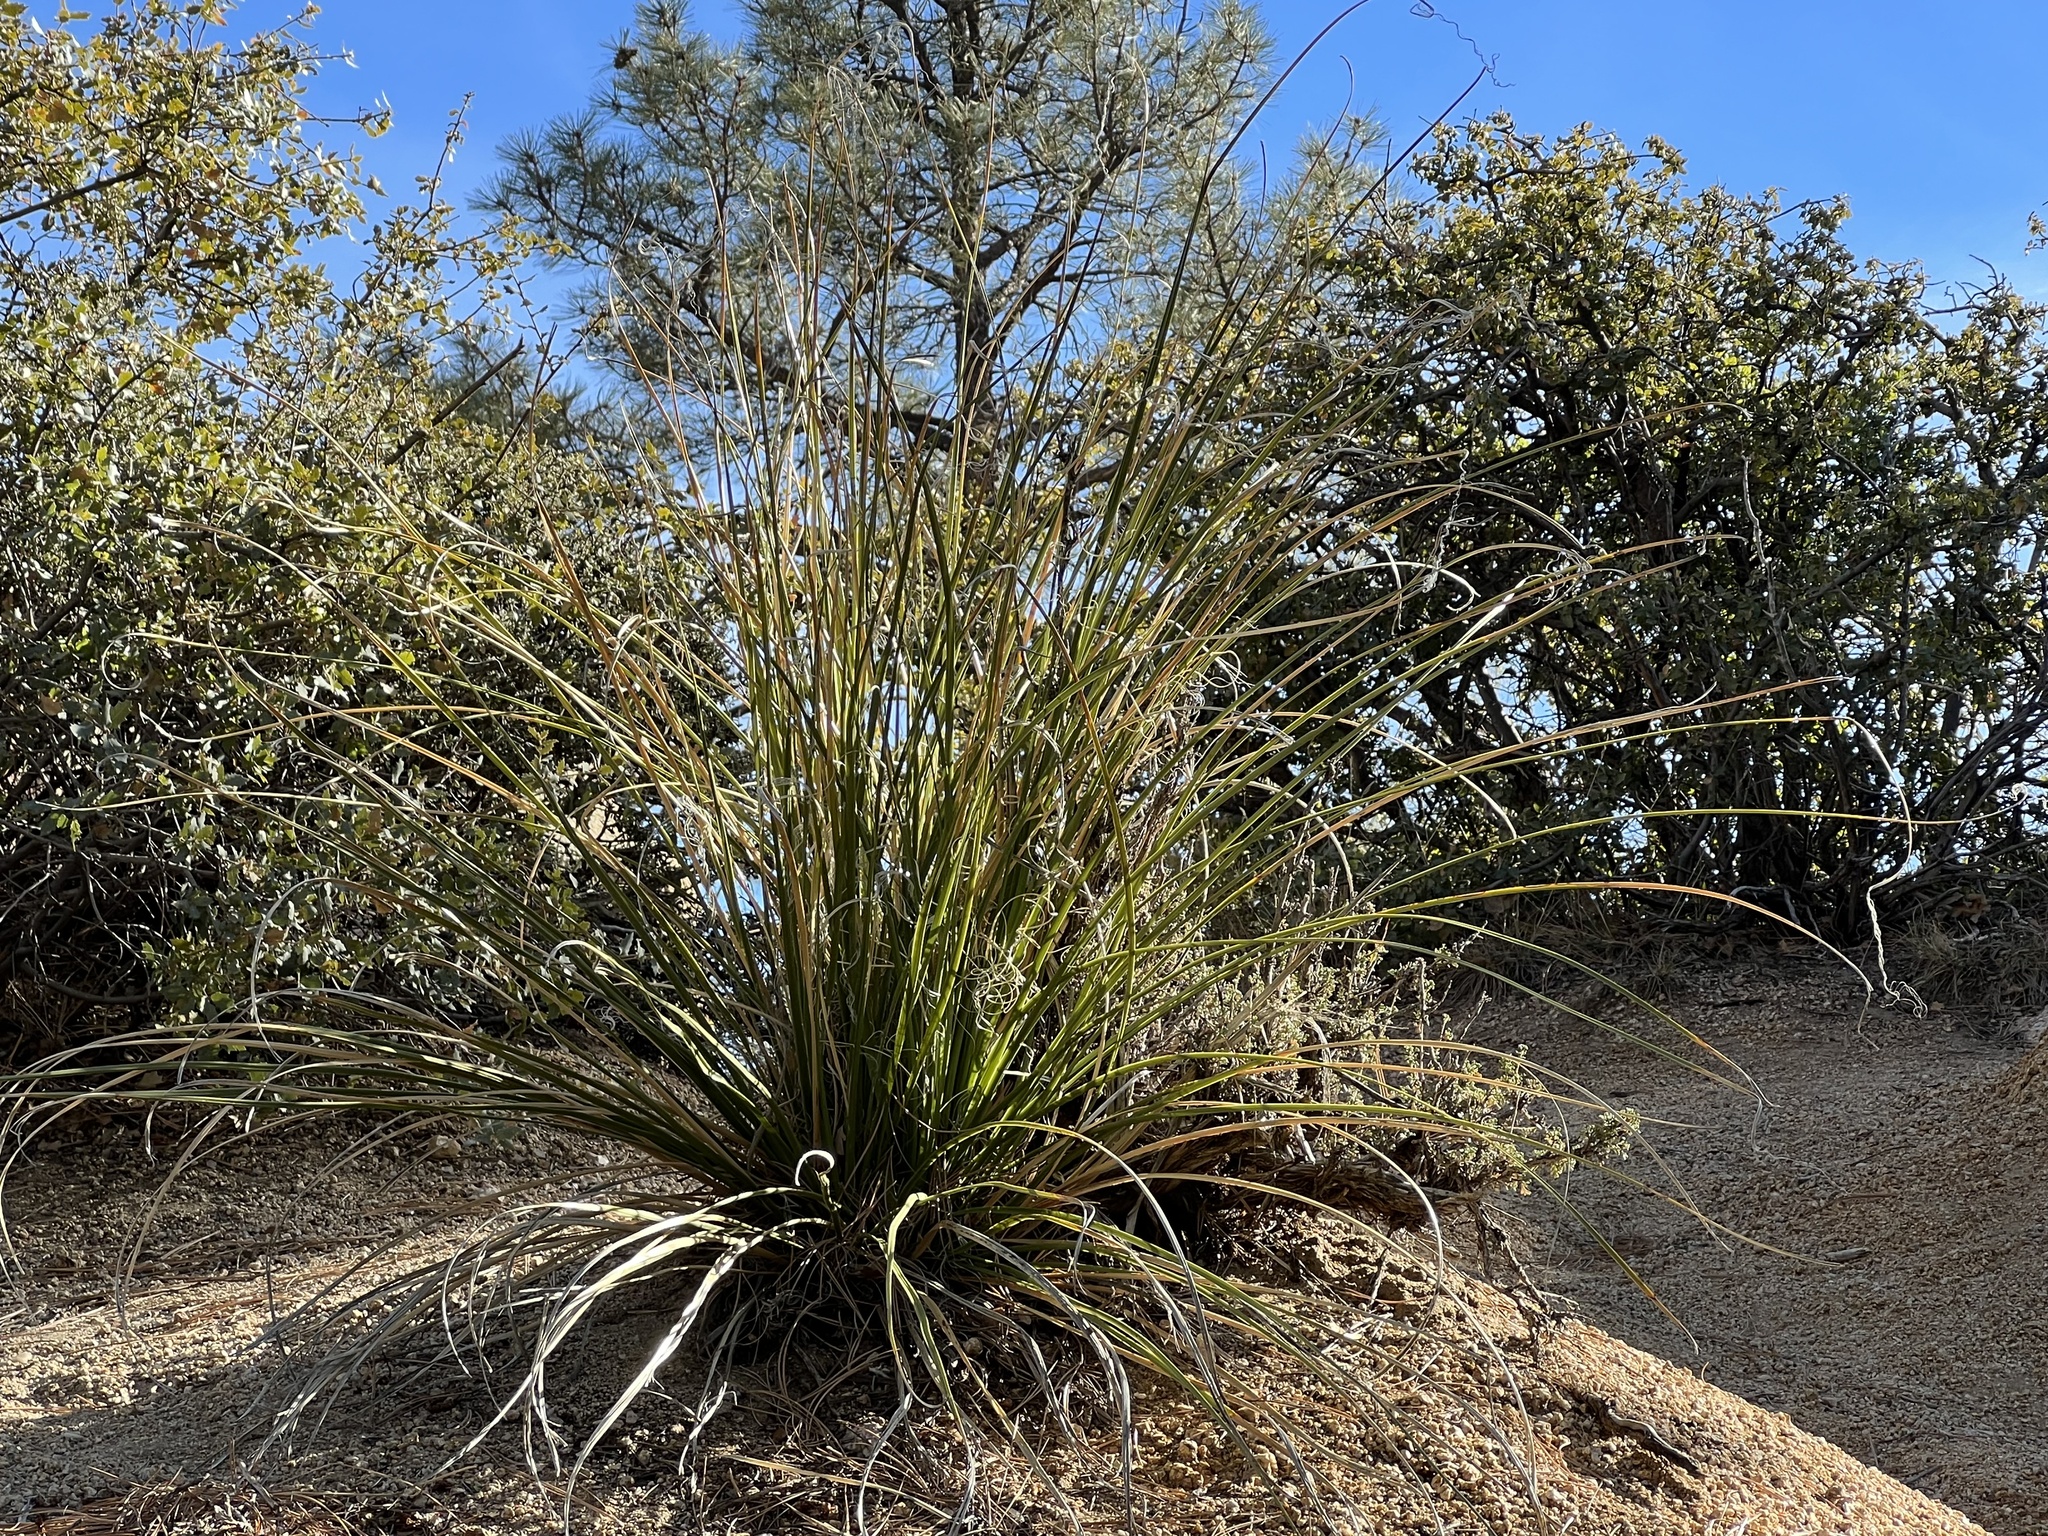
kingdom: Plantae
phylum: Tracheophyta
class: Liliopsida
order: Asparagales
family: Asparagaceae
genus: Nolina
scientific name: Nolina microcarpa
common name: Bear-grass
